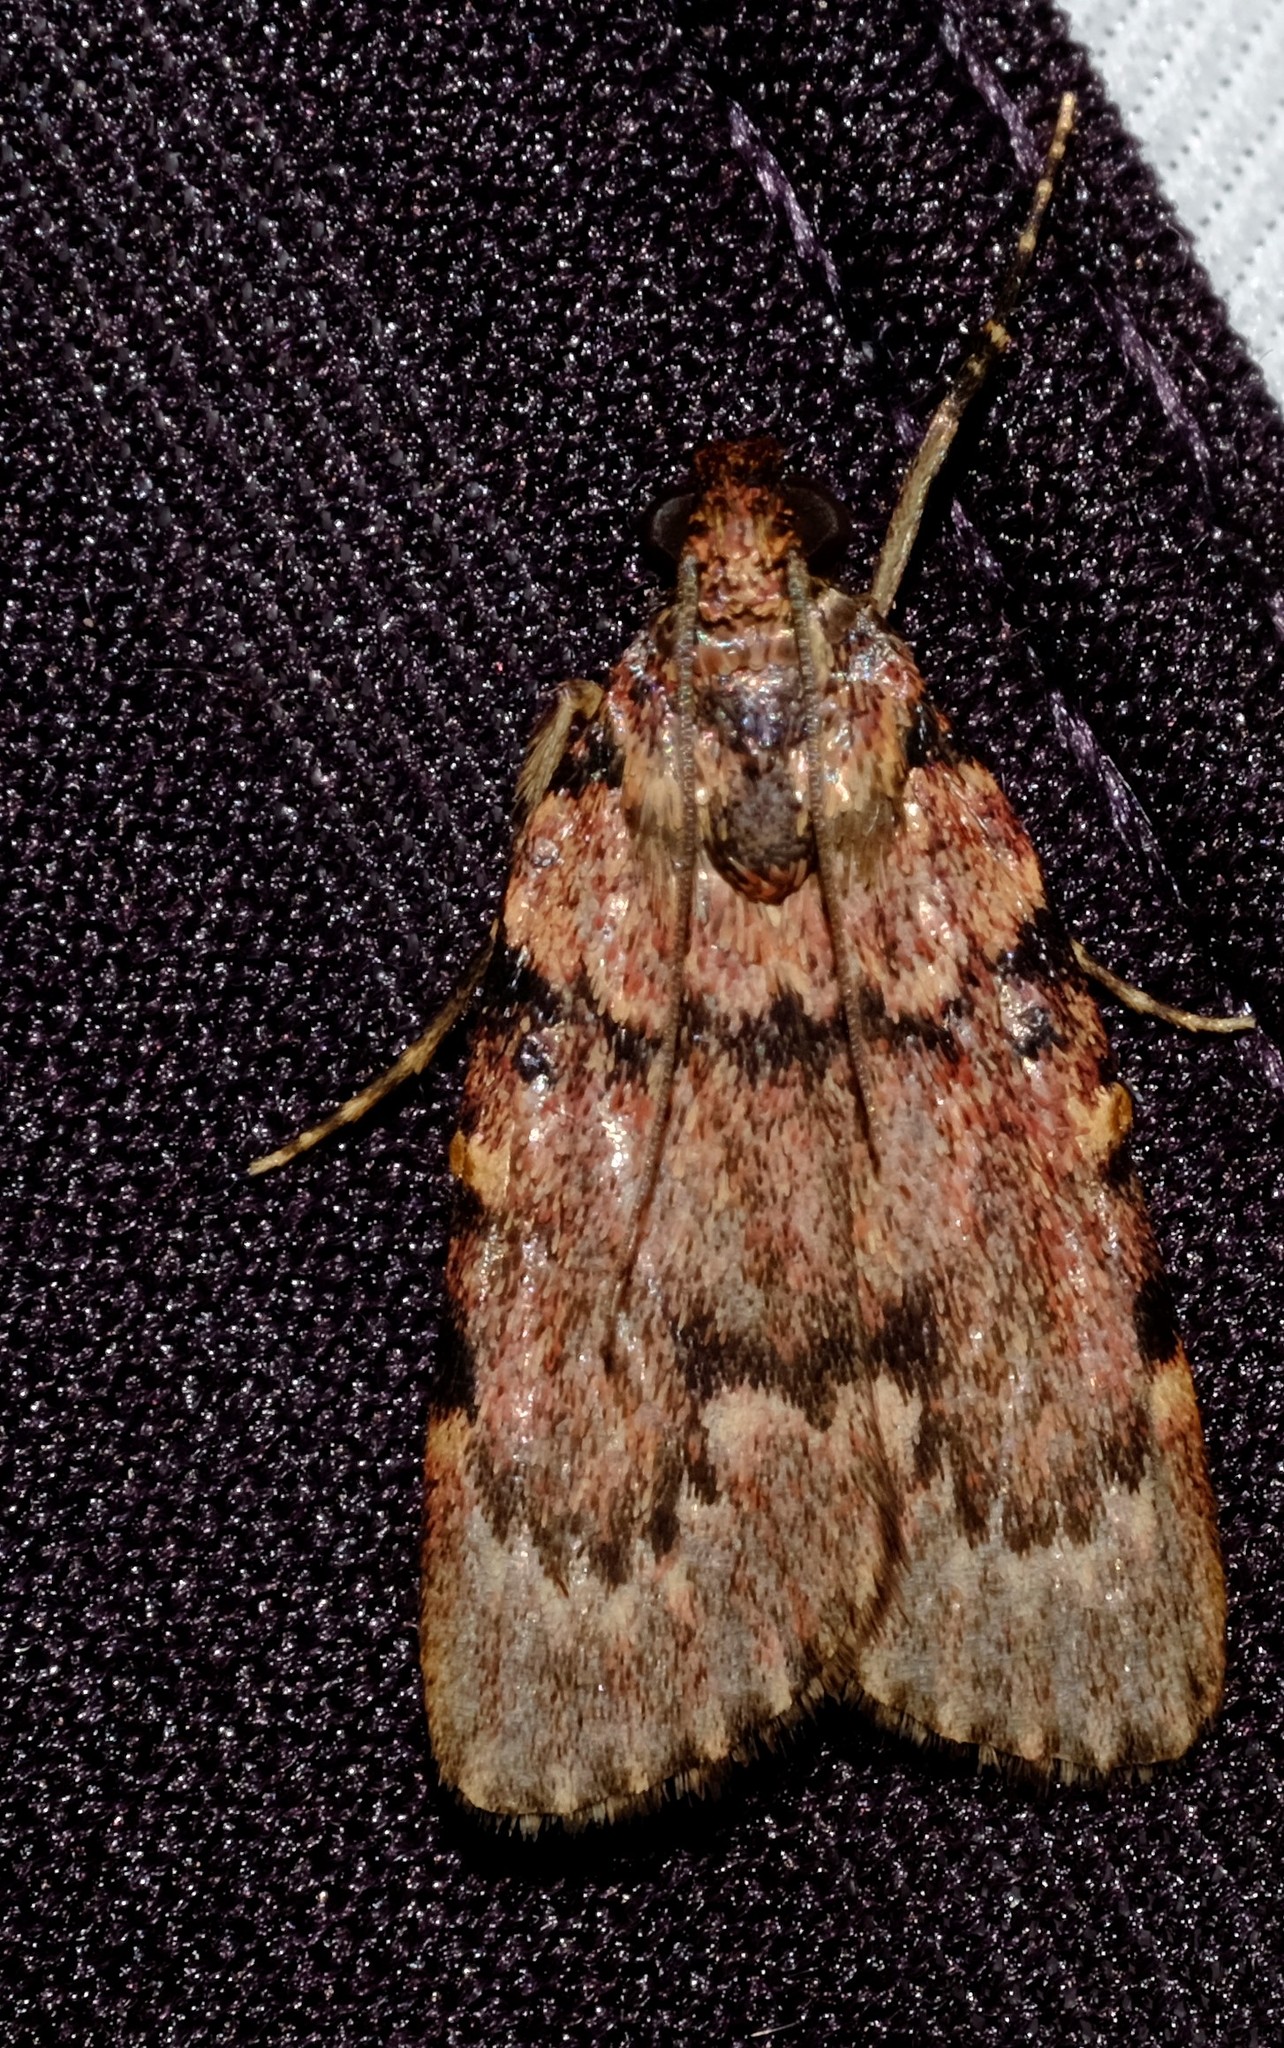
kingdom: Animalia
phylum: Arthropoda
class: Insecta
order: Lepidoptera
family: Pyralidae
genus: Mimaglossa
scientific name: Mimaglossa nauplialis
